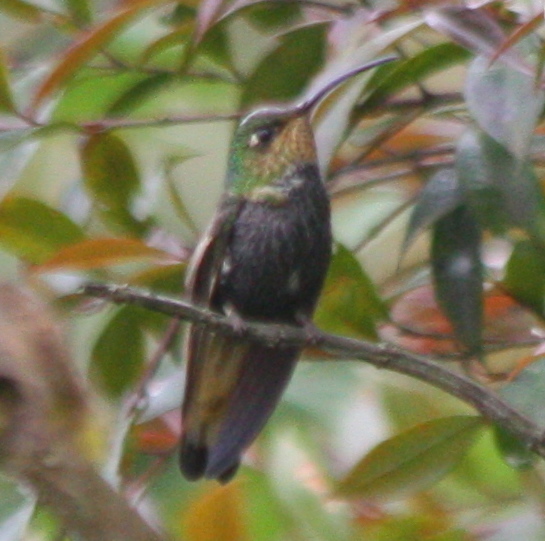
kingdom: Animalia
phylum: Chordata
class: Aves
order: Apodiformes
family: Trochilidae
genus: Lafresnaya
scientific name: Lafresnaya lafresnayi
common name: Mountain velvetbreast
